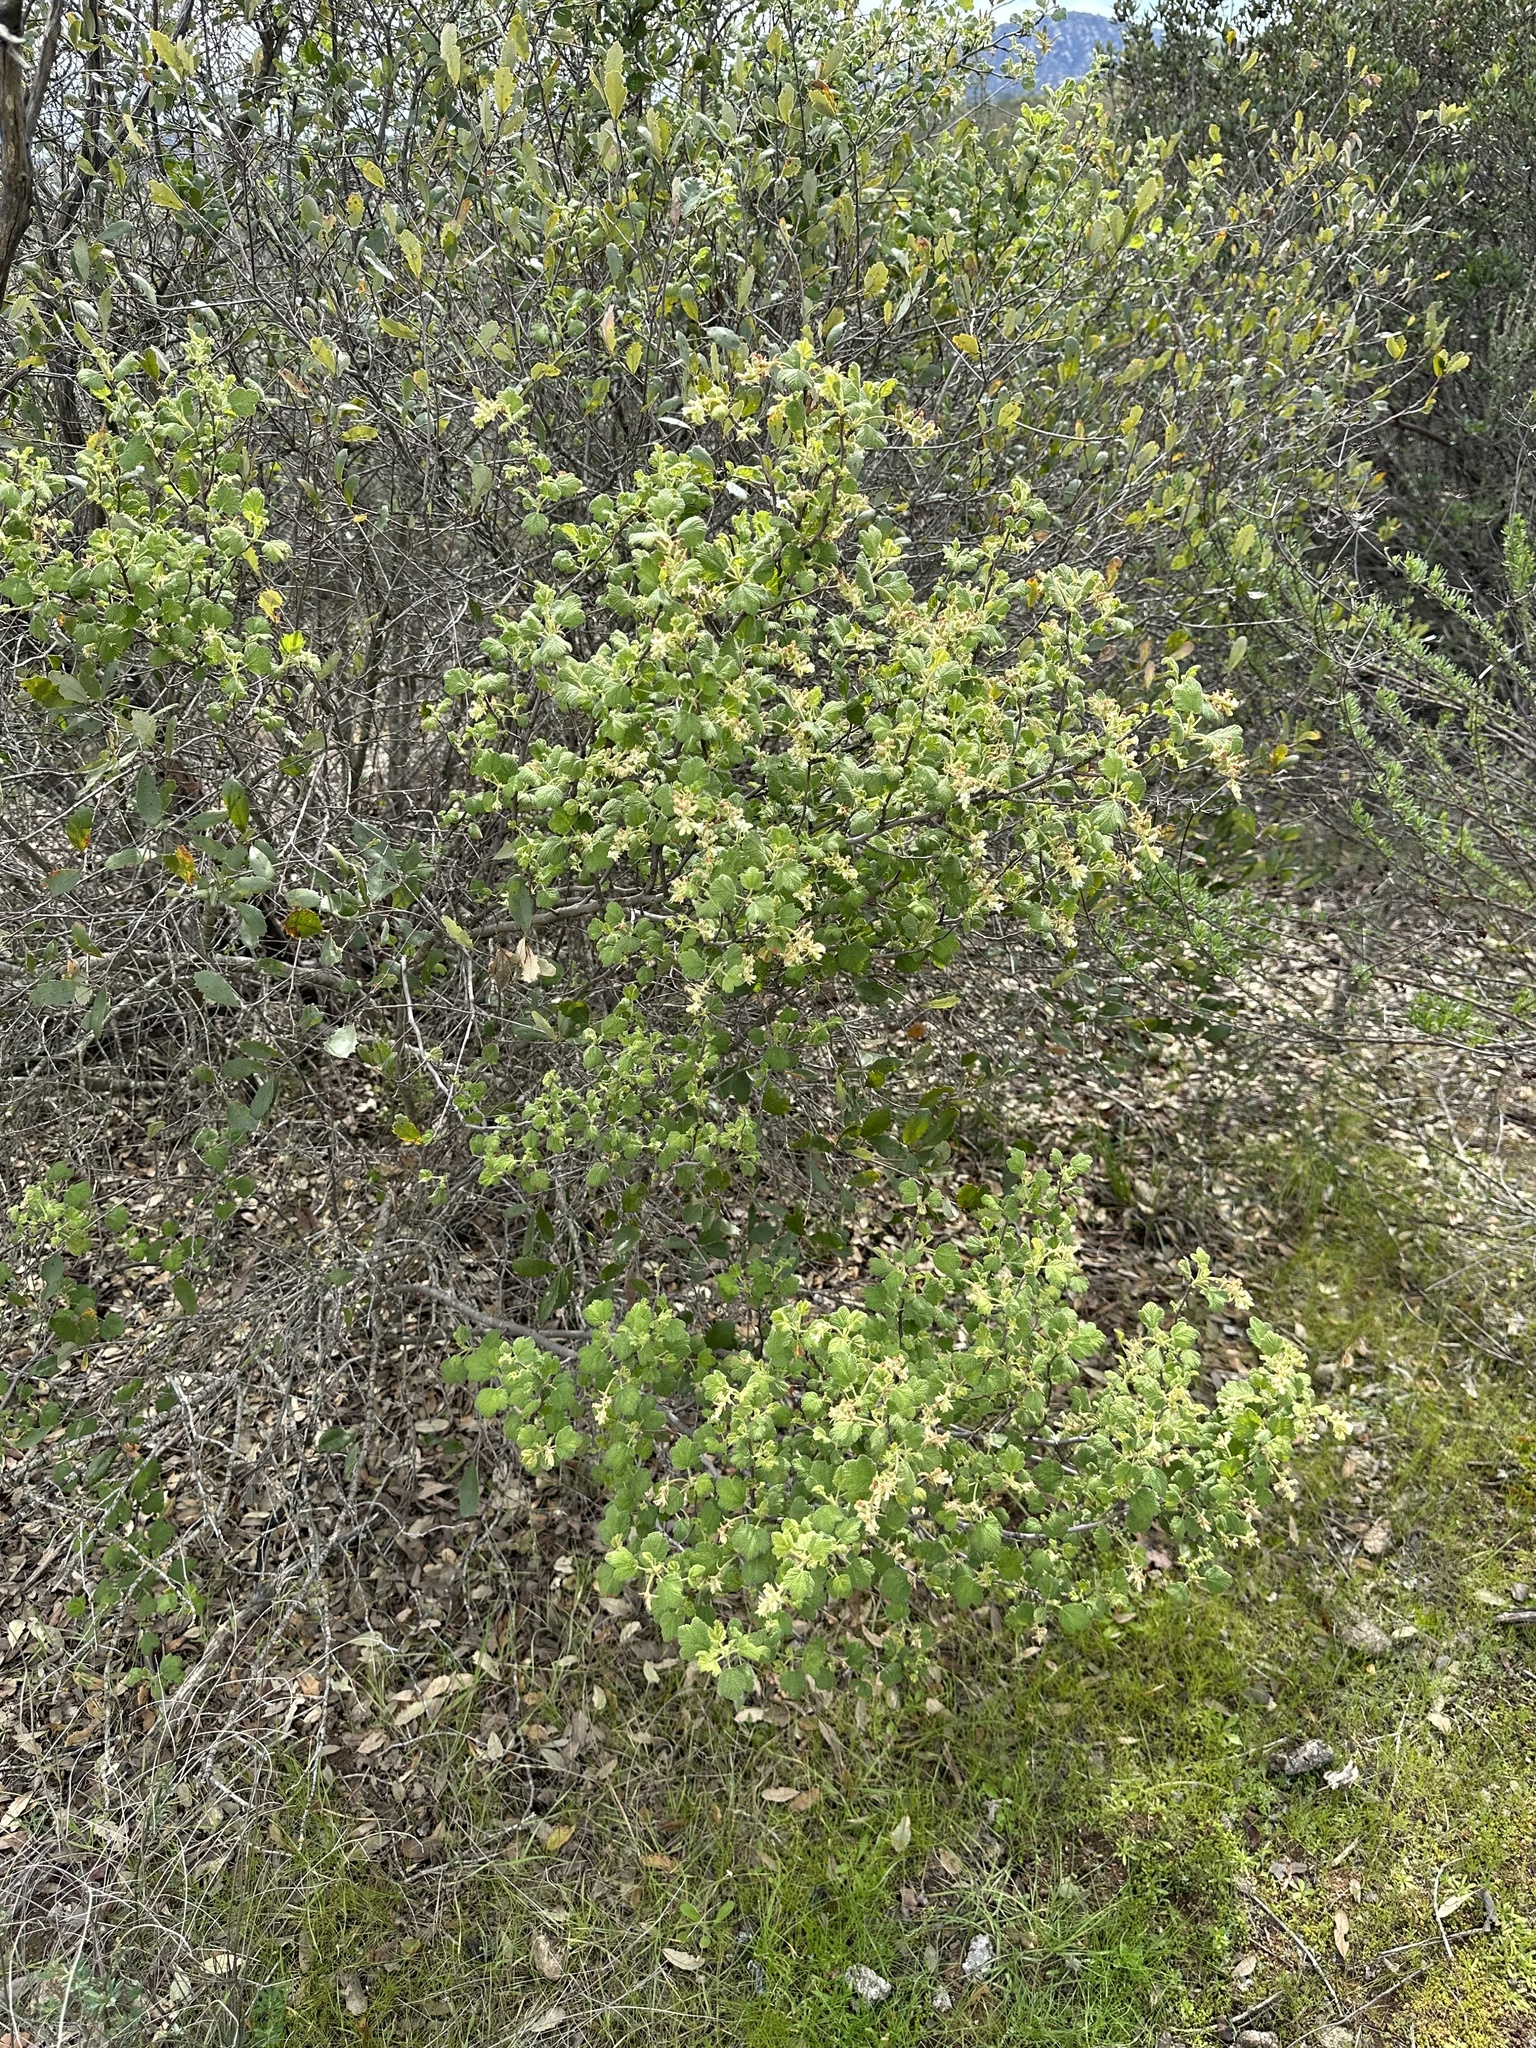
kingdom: Plantae
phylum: Tracheophyta
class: Magnoliopsida
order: Saxifragales
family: Grossulariaceae
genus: Ribes
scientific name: Ribes indecorum
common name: White-flower currant
